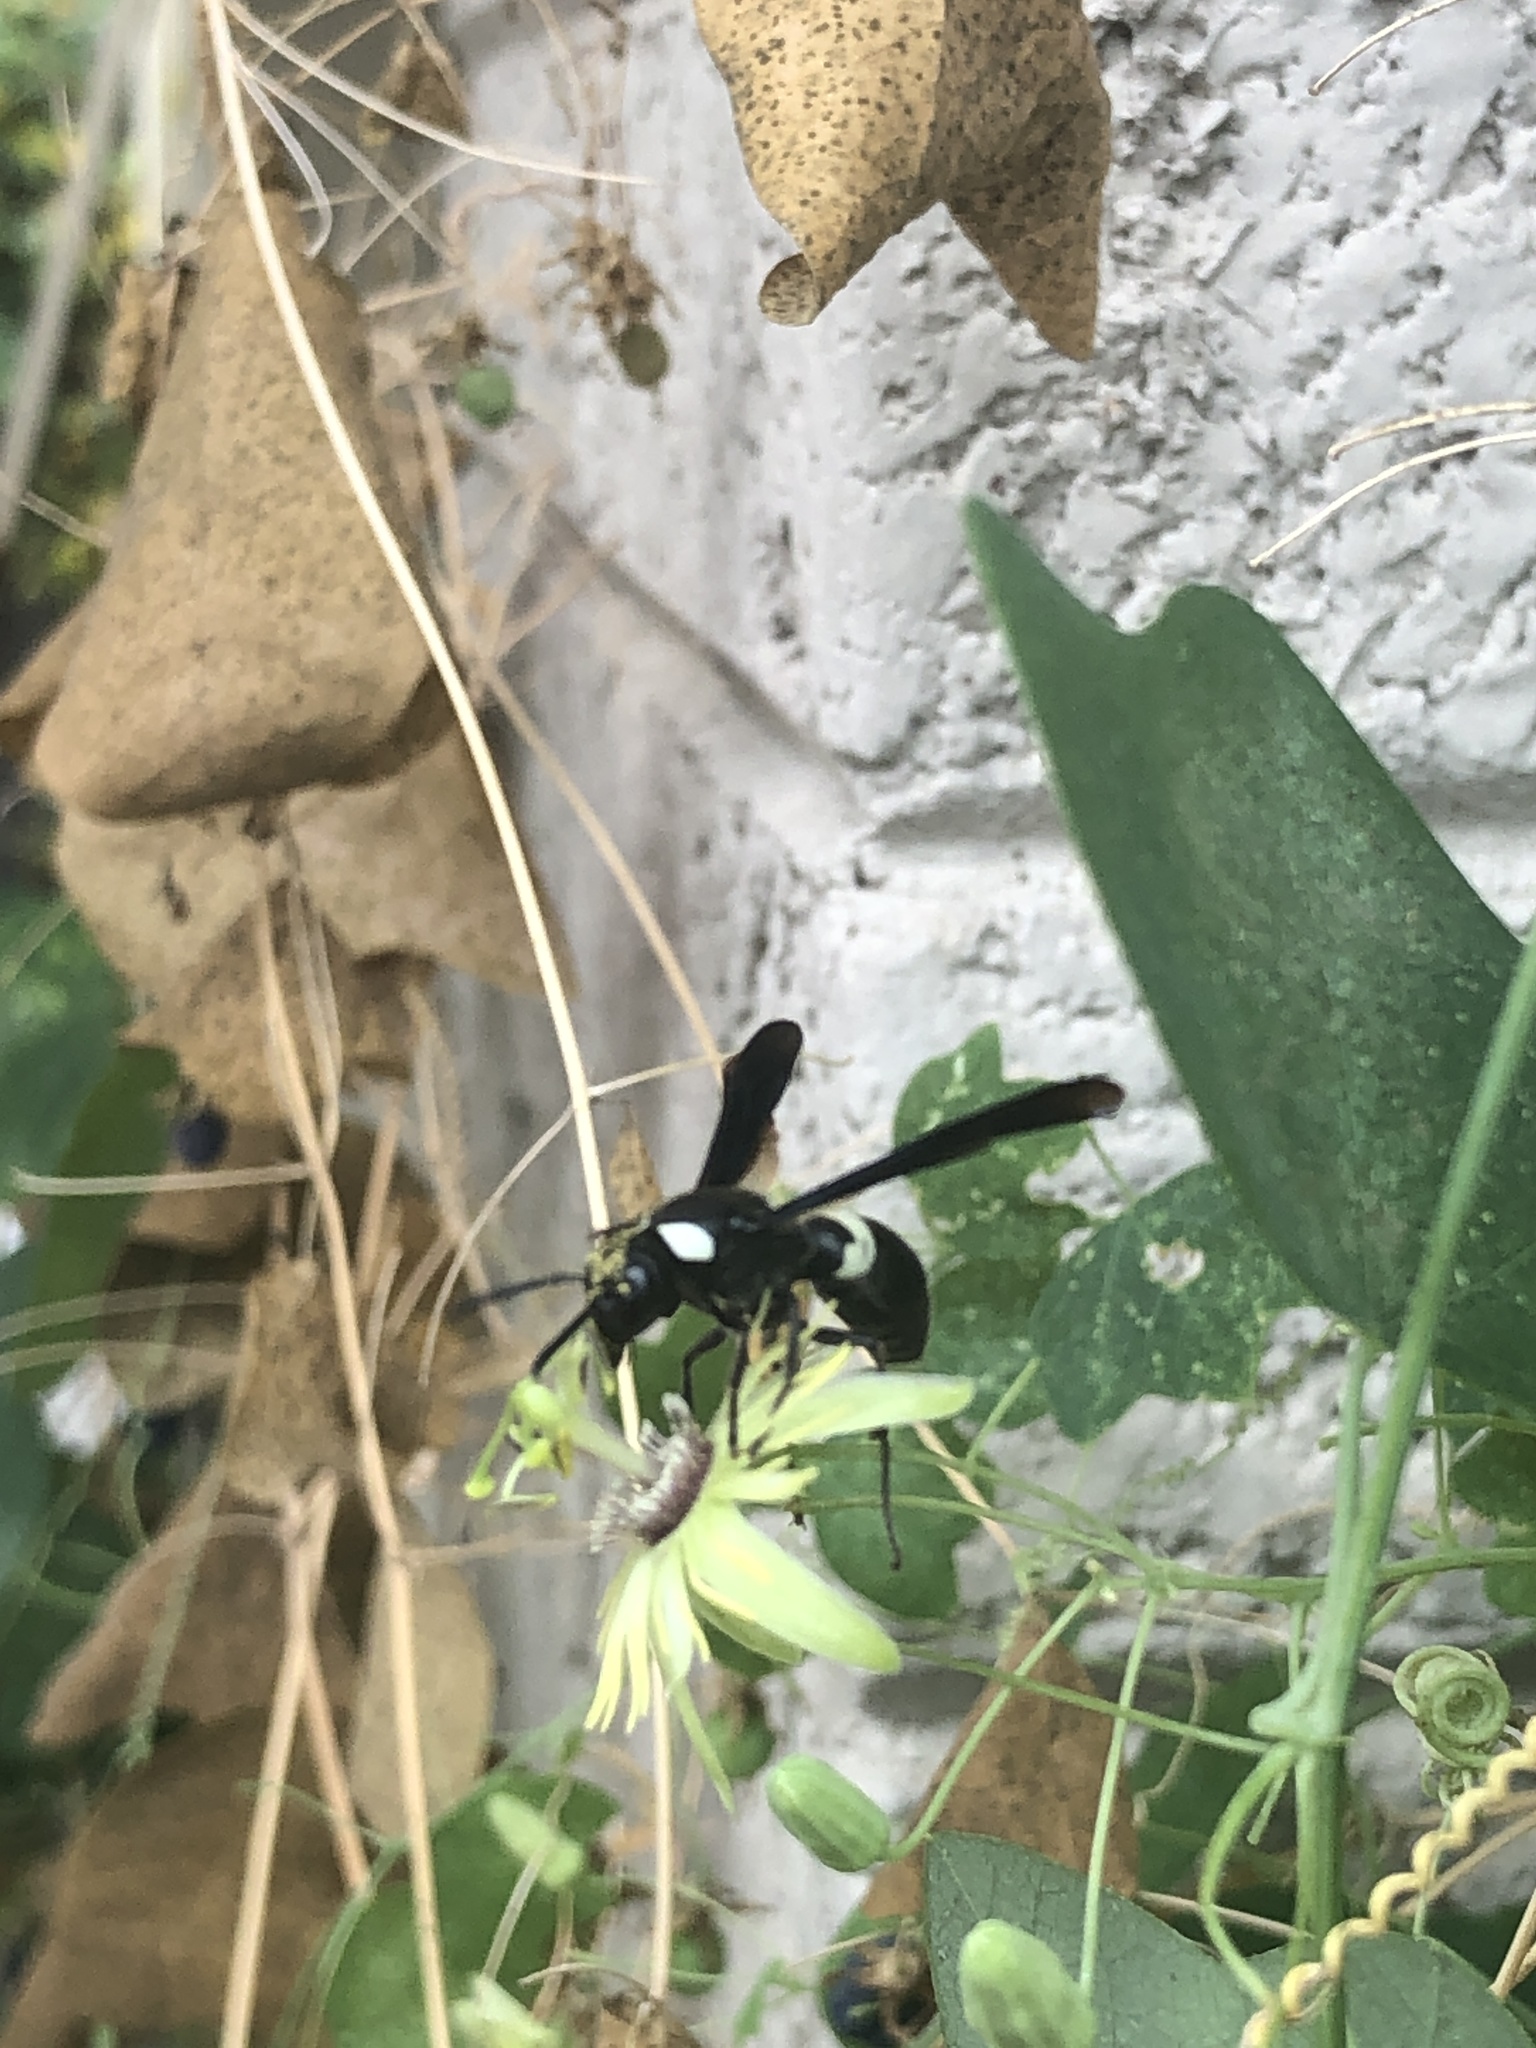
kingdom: Animalia
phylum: Arthropoda
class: Insecta
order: Hymenoptera
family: Eumenidae
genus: Monobia
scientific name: Monobia quadridens
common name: Four-toothed mason wasp
